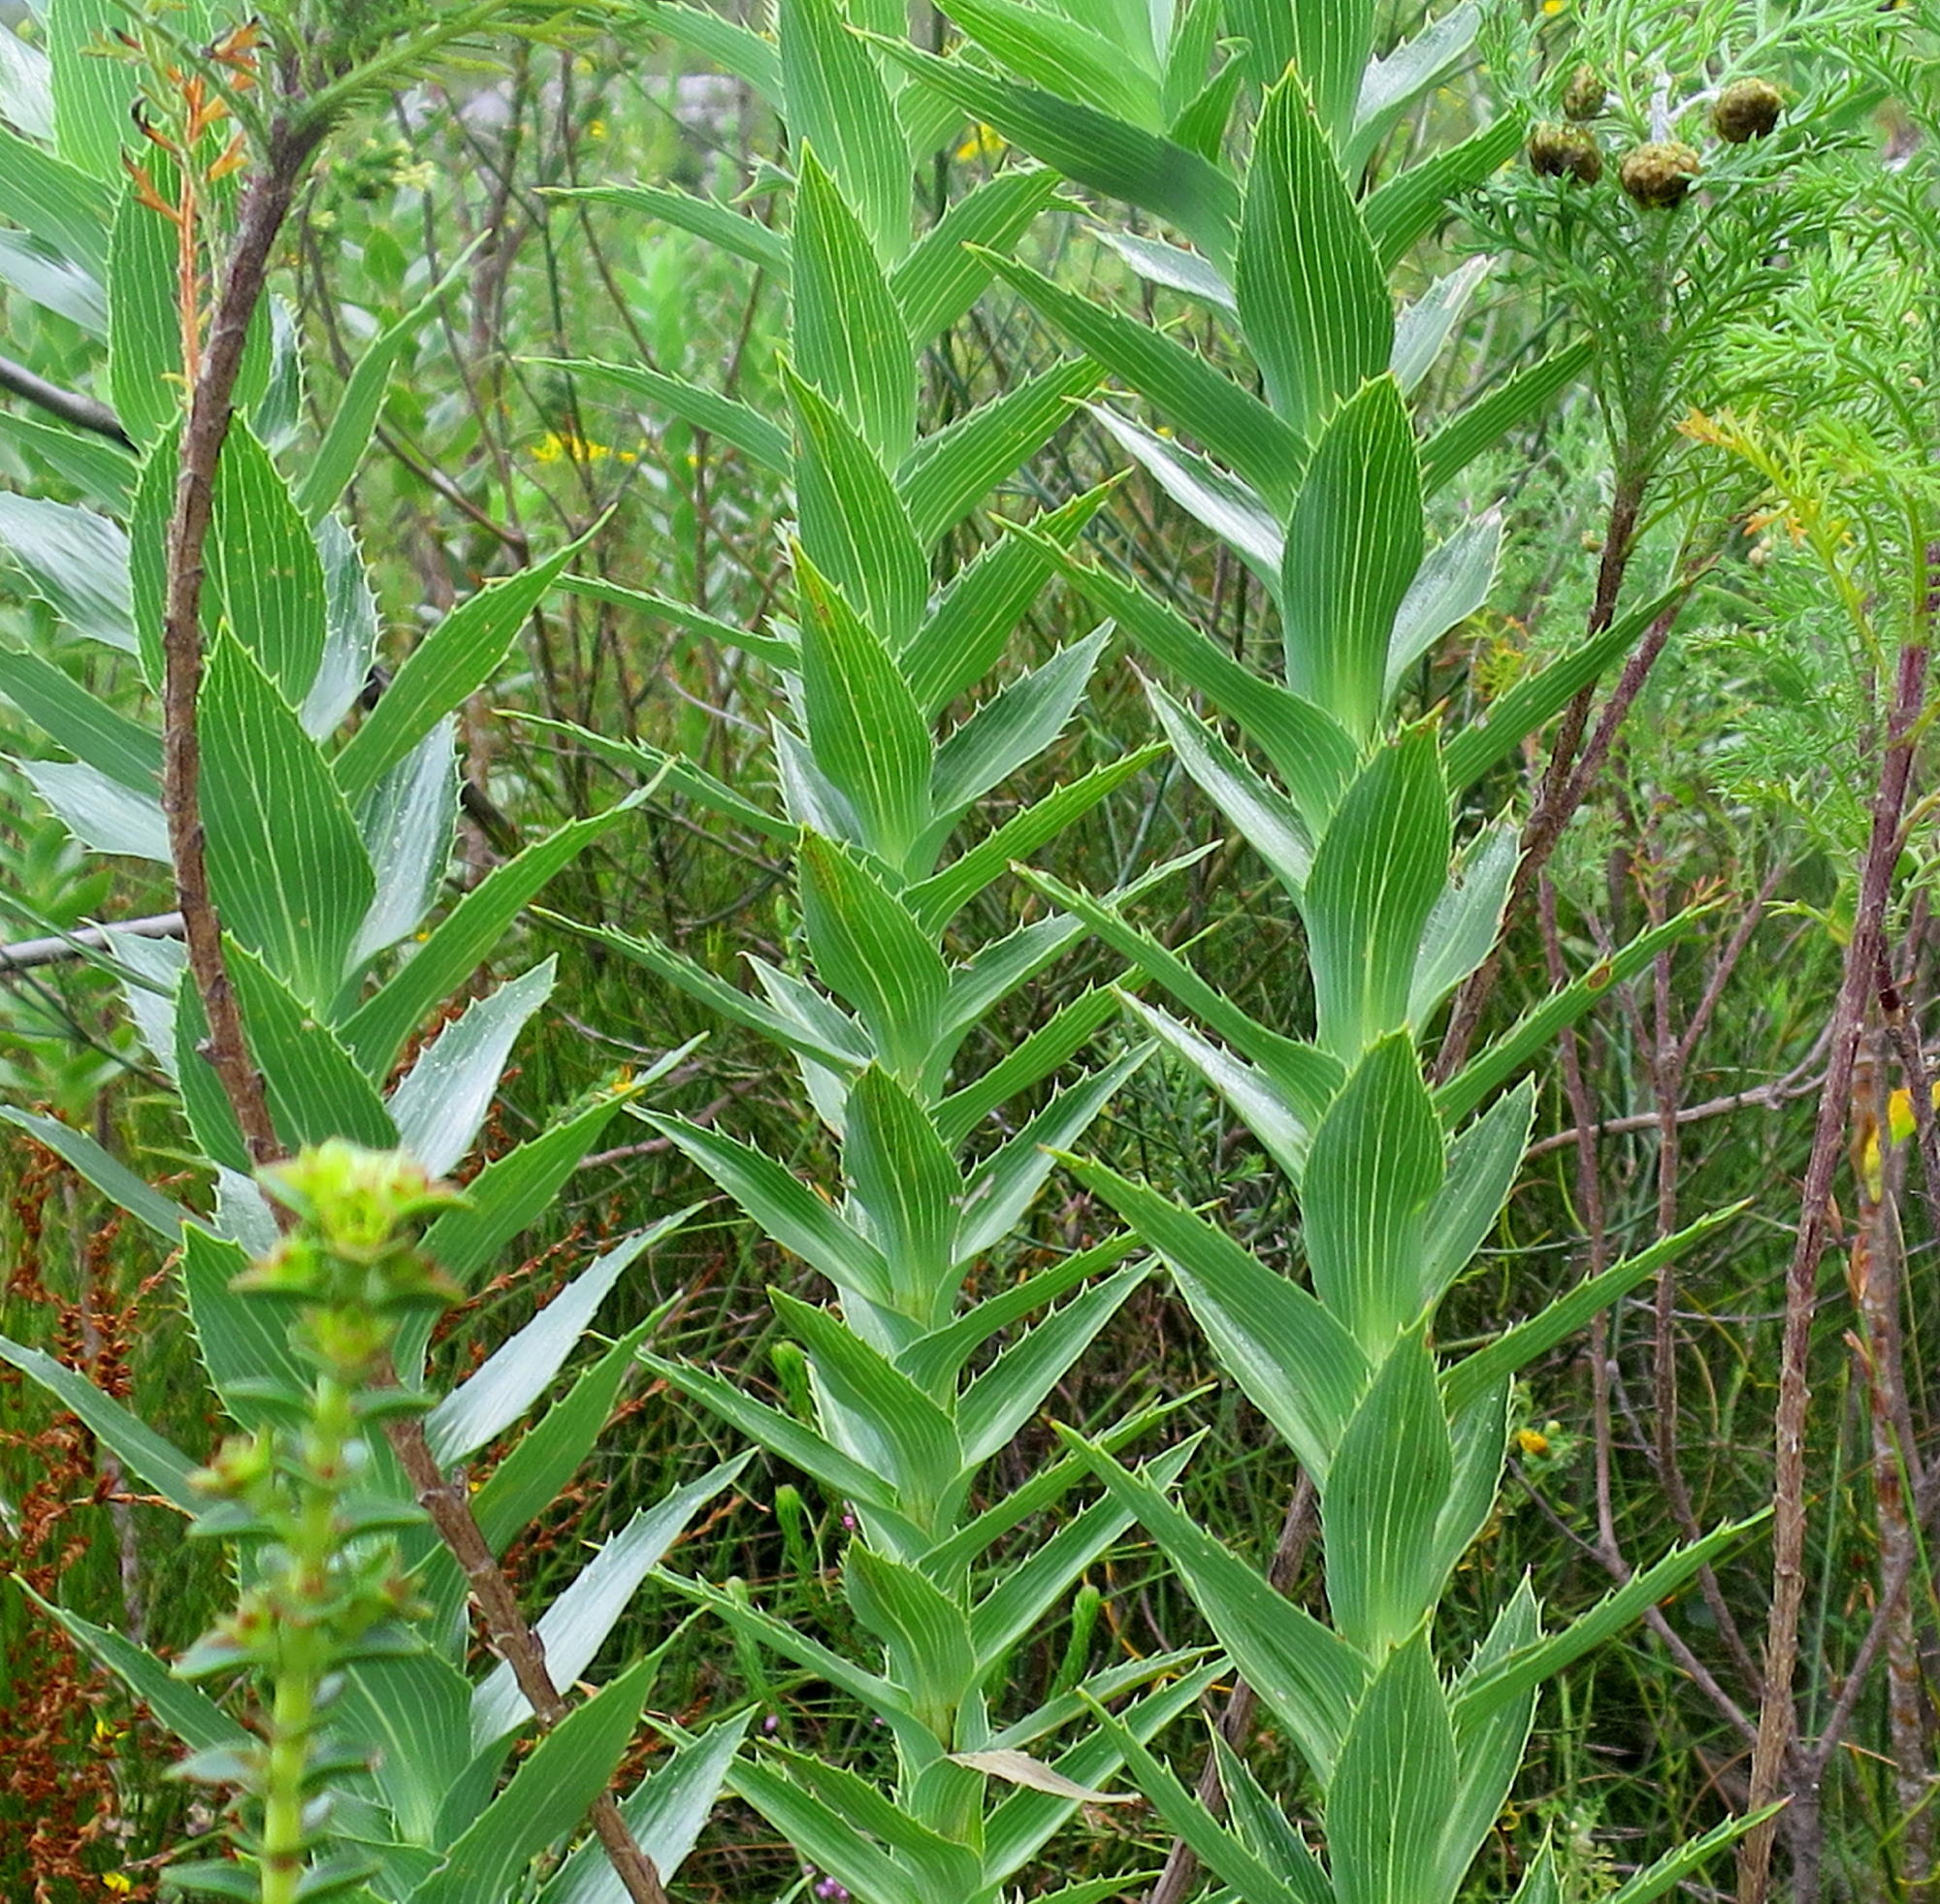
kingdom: Plantae
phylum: Tracheophyta
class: Magnoliopsida
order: Rosales
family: Rosaceae
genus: Cliffortia
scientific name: Cliffortia grandifolia
